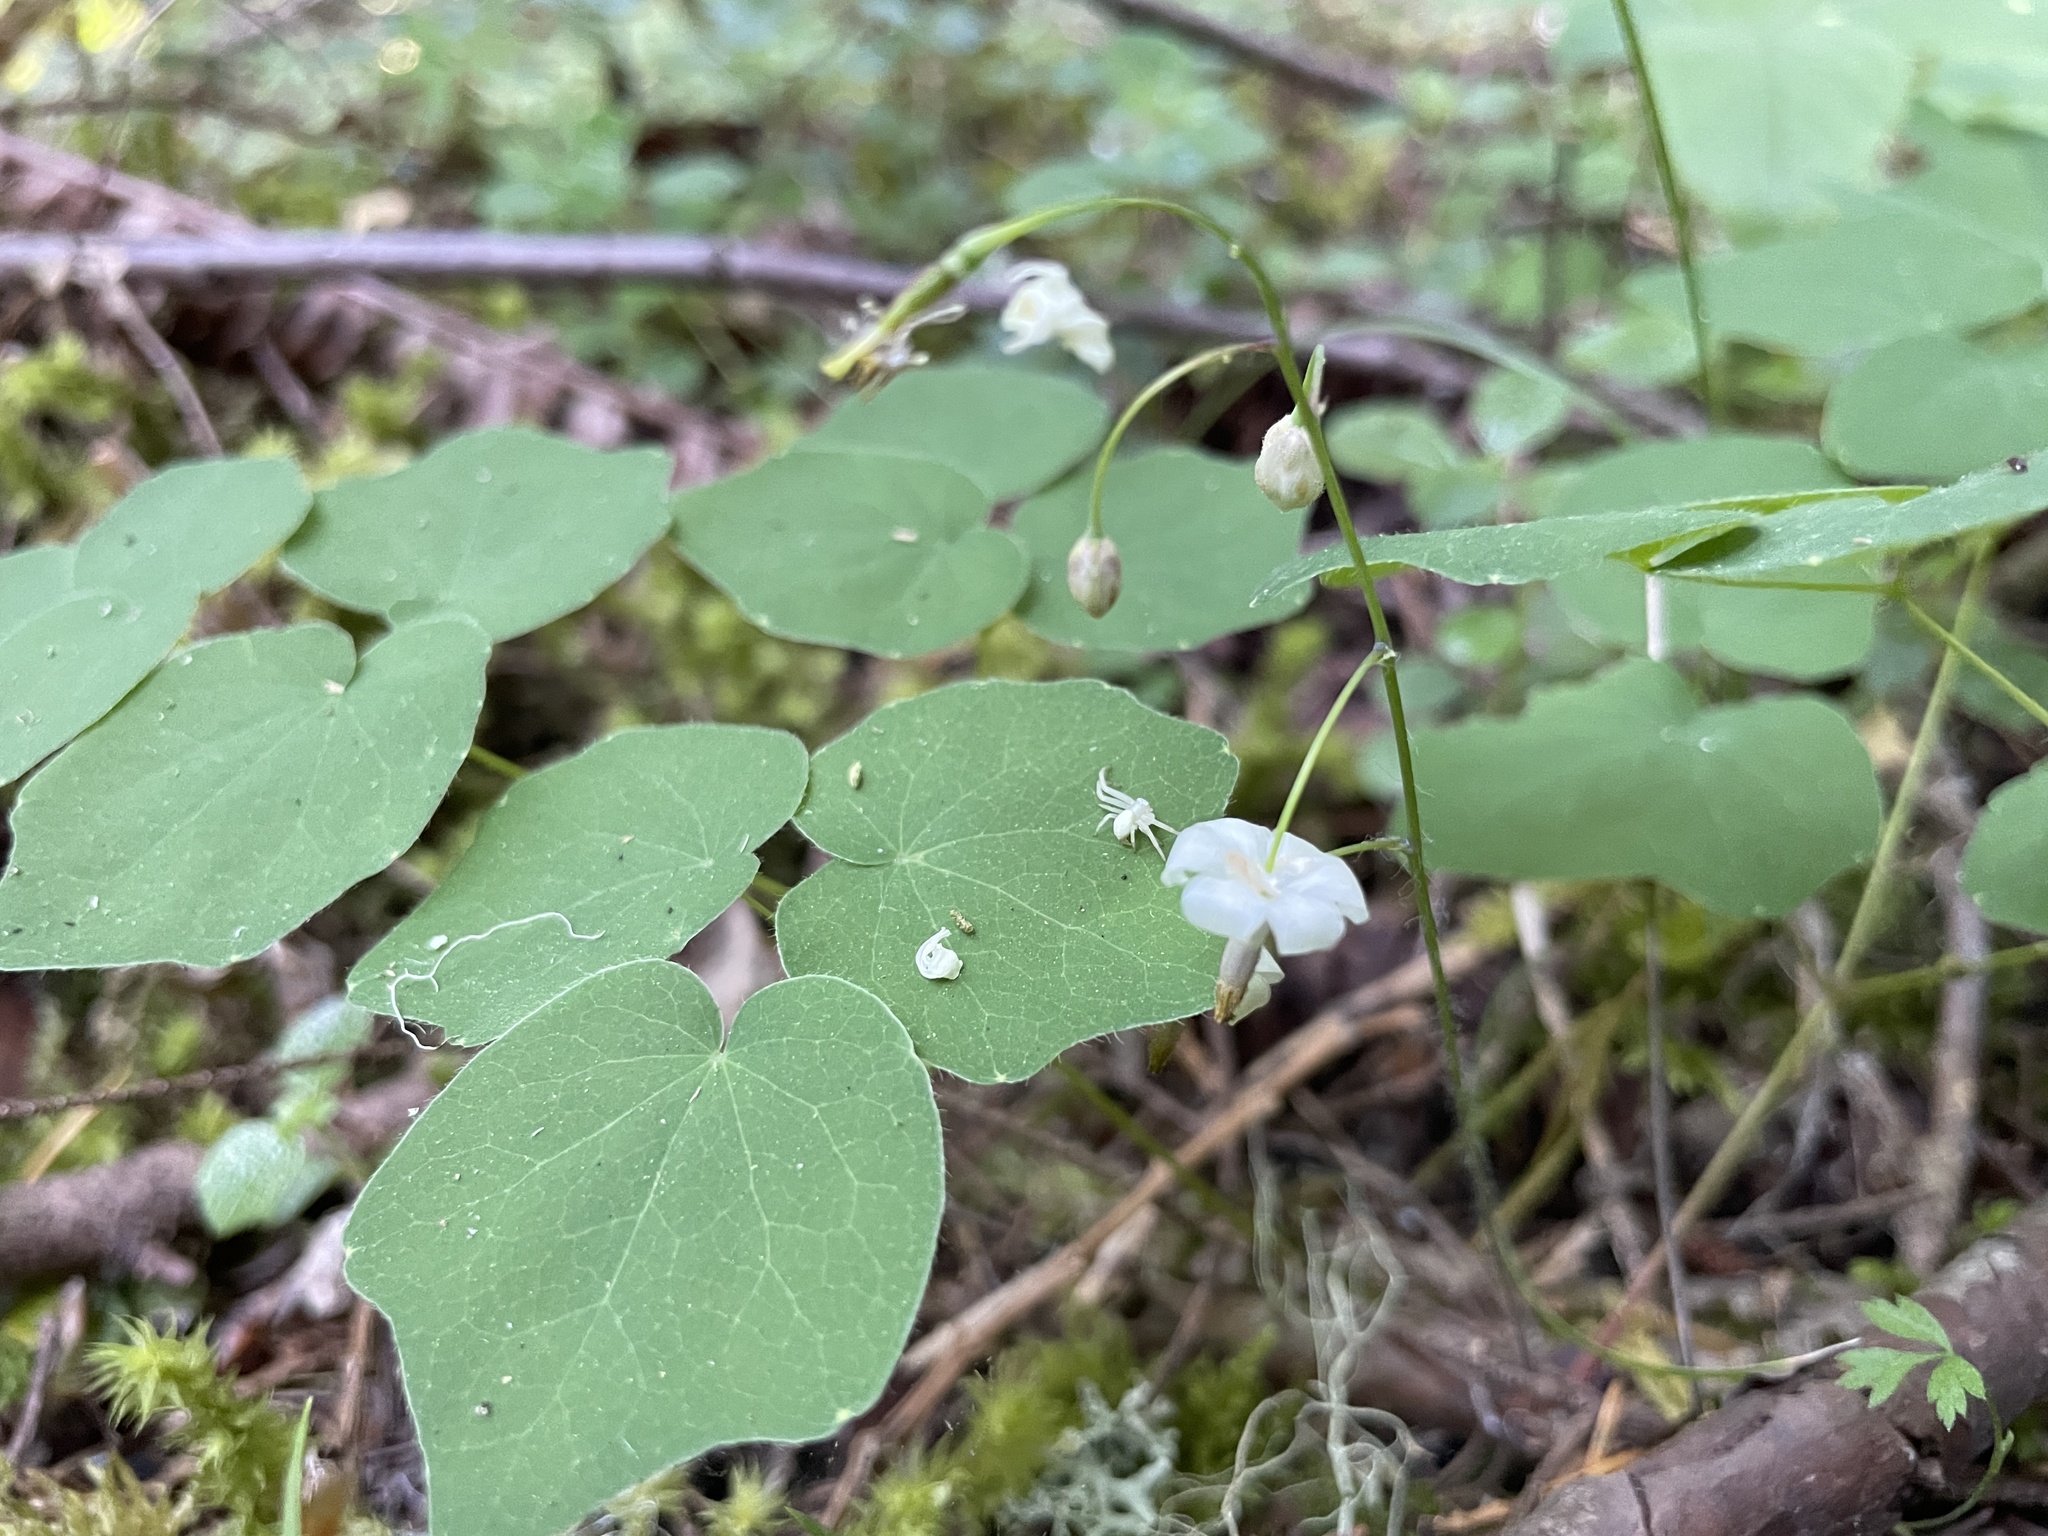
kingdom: Plantae
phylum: Tracheophyta
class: Magnoliopsida
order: Ranunculales
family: Berberidaceae
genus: Vancouveria
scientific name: Vancouveria hexandra
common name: Northern inside-out-flower
